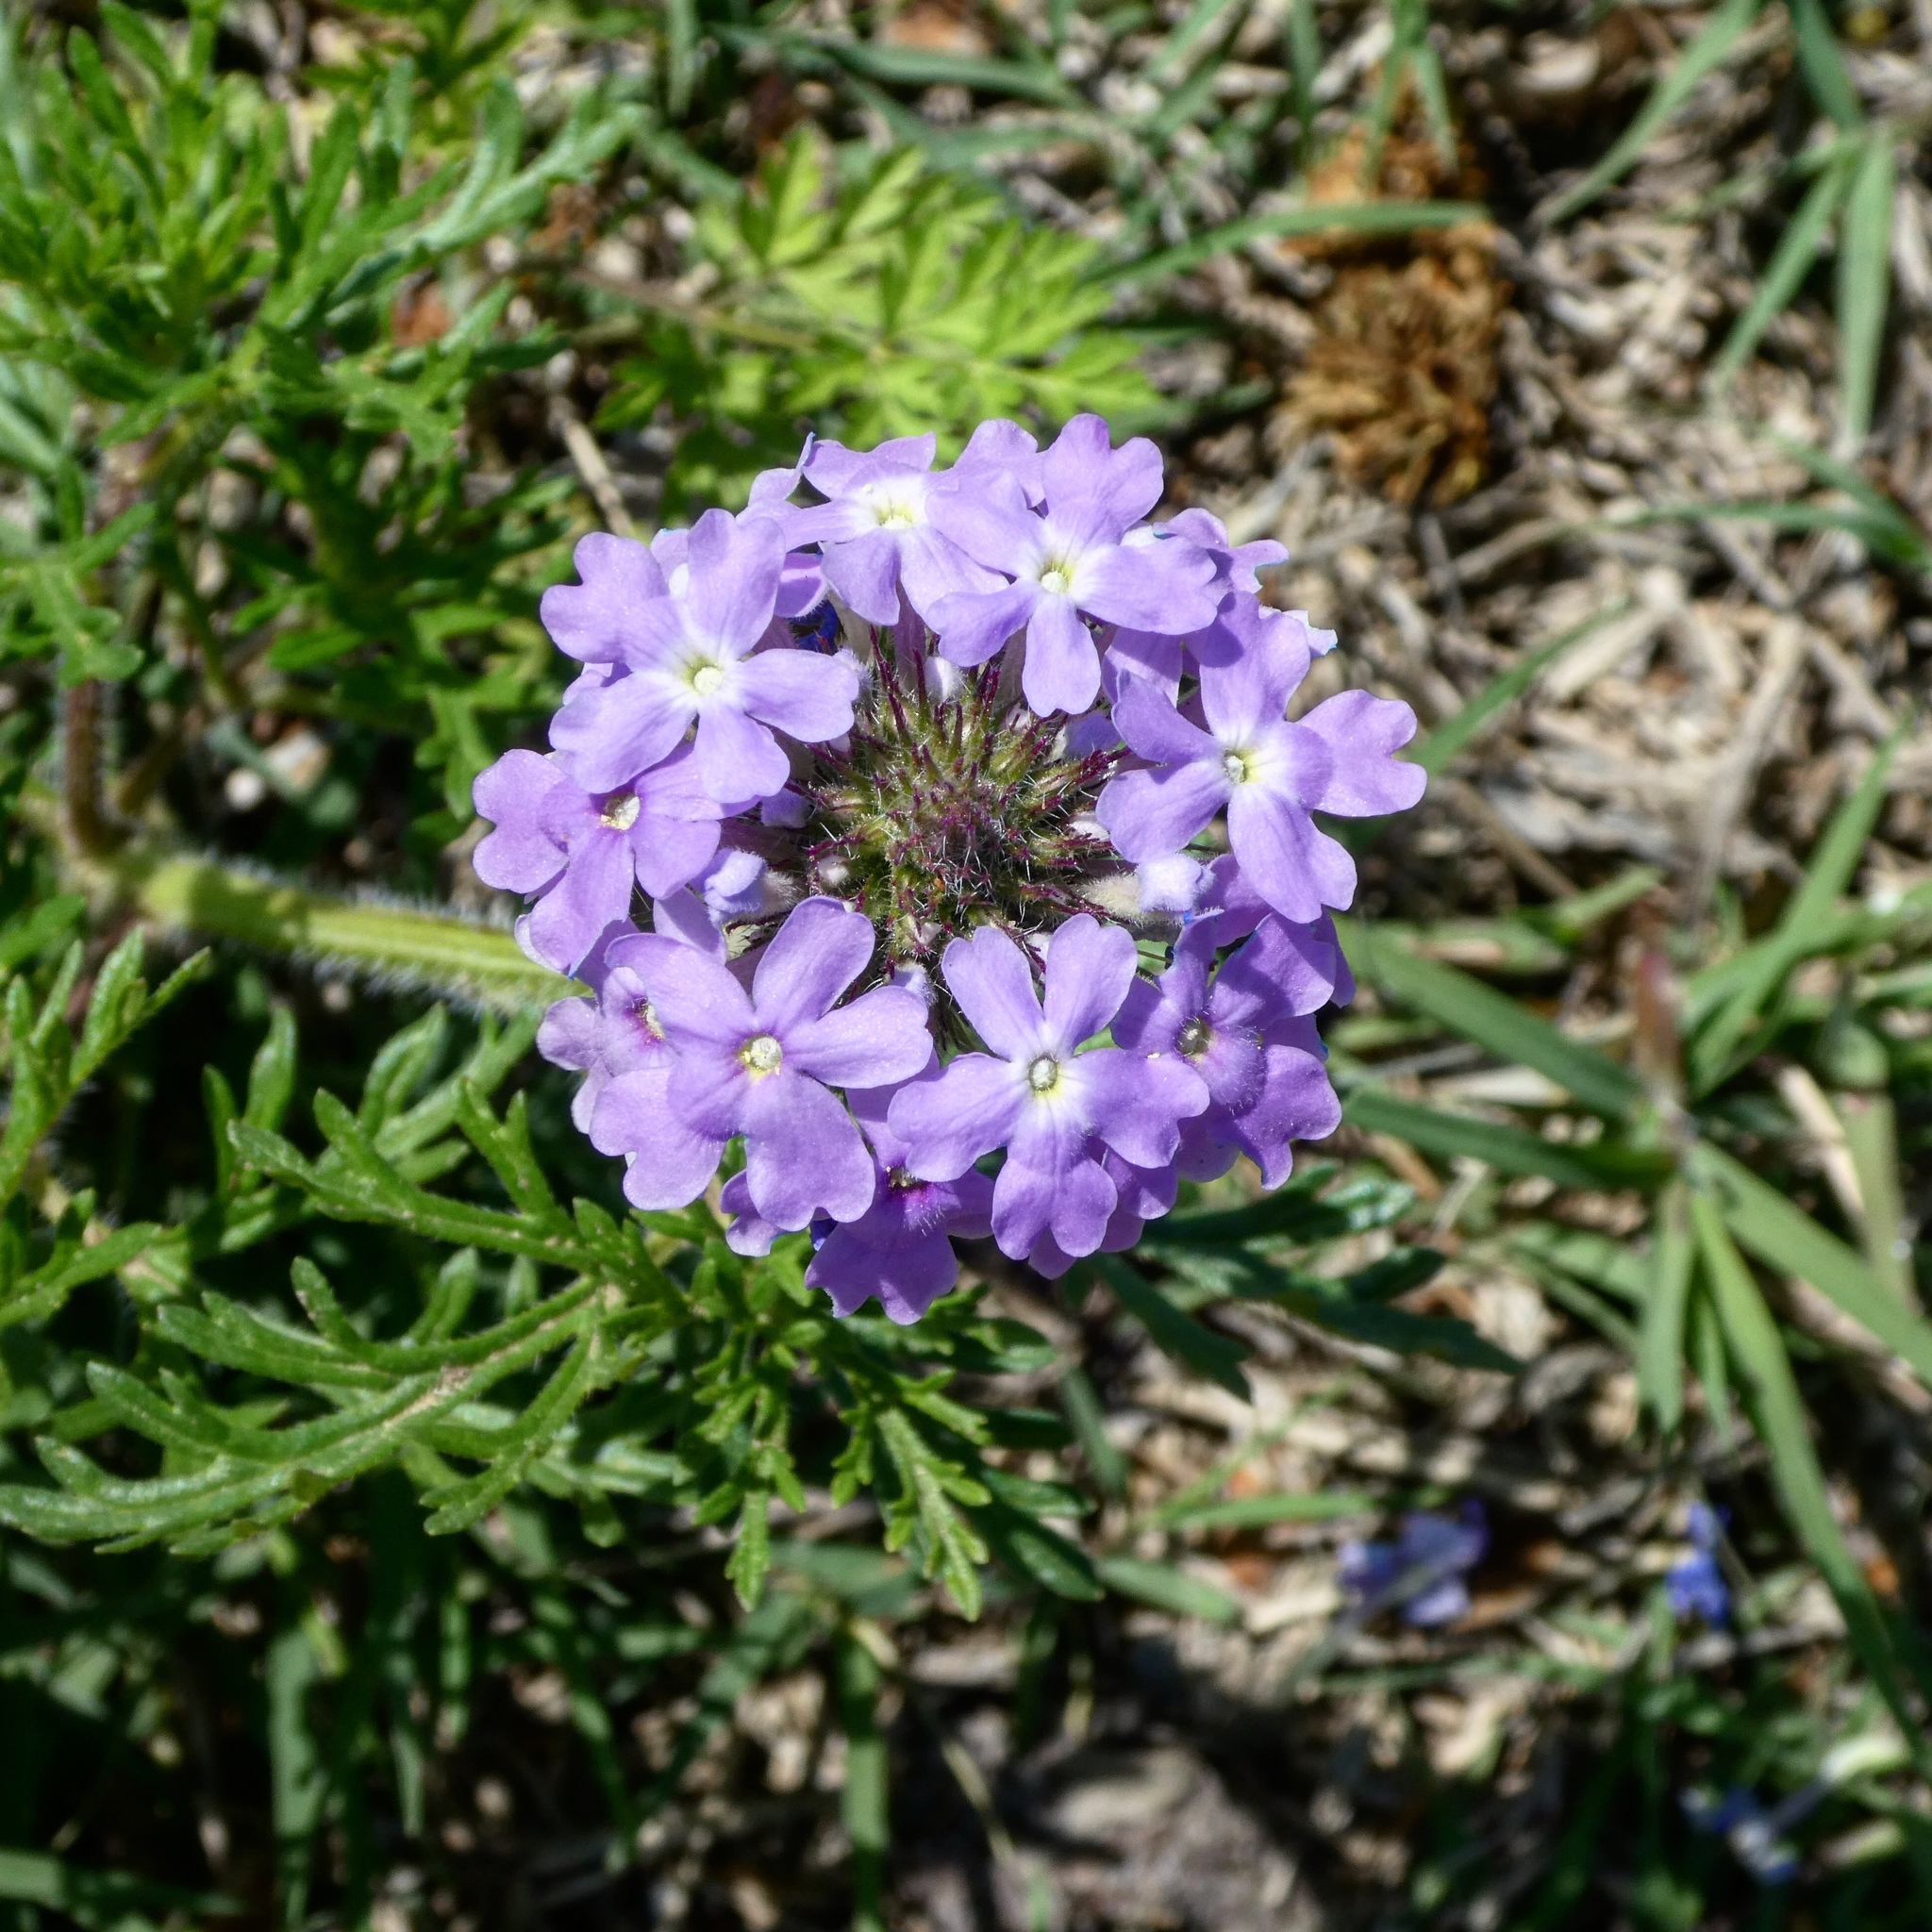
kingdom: Plantae
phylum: Tracheophyta
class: Magnoliopsida
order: Lamiales
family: Verbenaceae
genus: Verbena
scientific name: Verbena bipinnatifida
